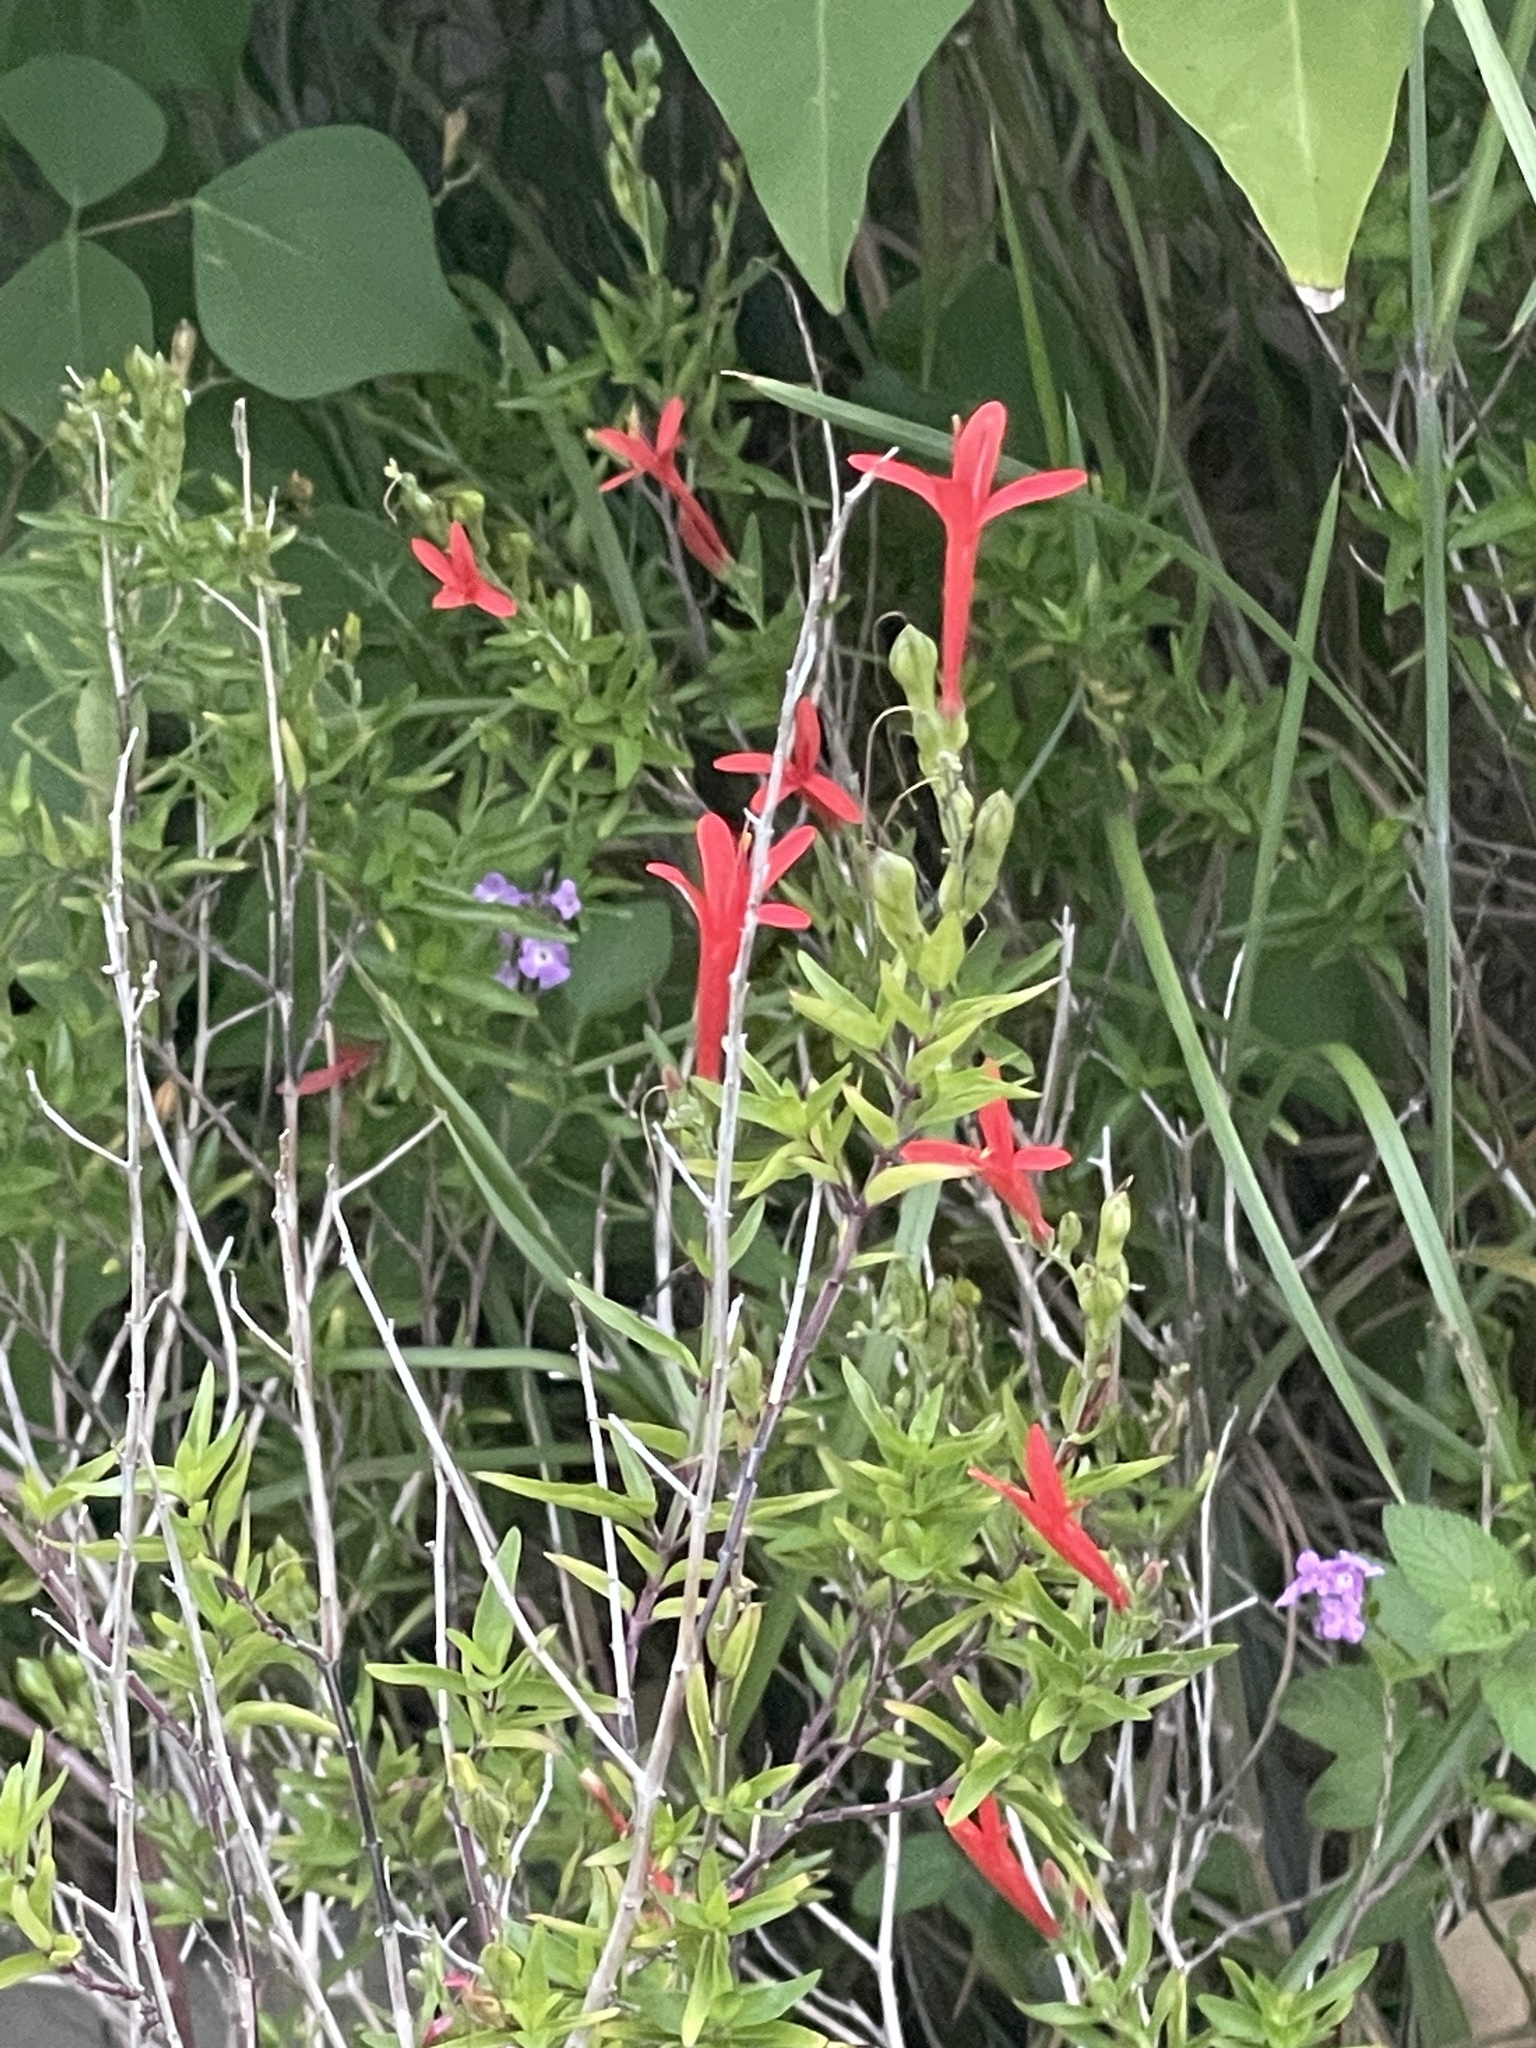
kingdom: Plantae
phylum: Tracheophyta
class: Magnoliopsida
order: Lamiales
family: Acanthaceae
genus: Anisacanthus
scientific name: Anisacanthus quadrifidus
